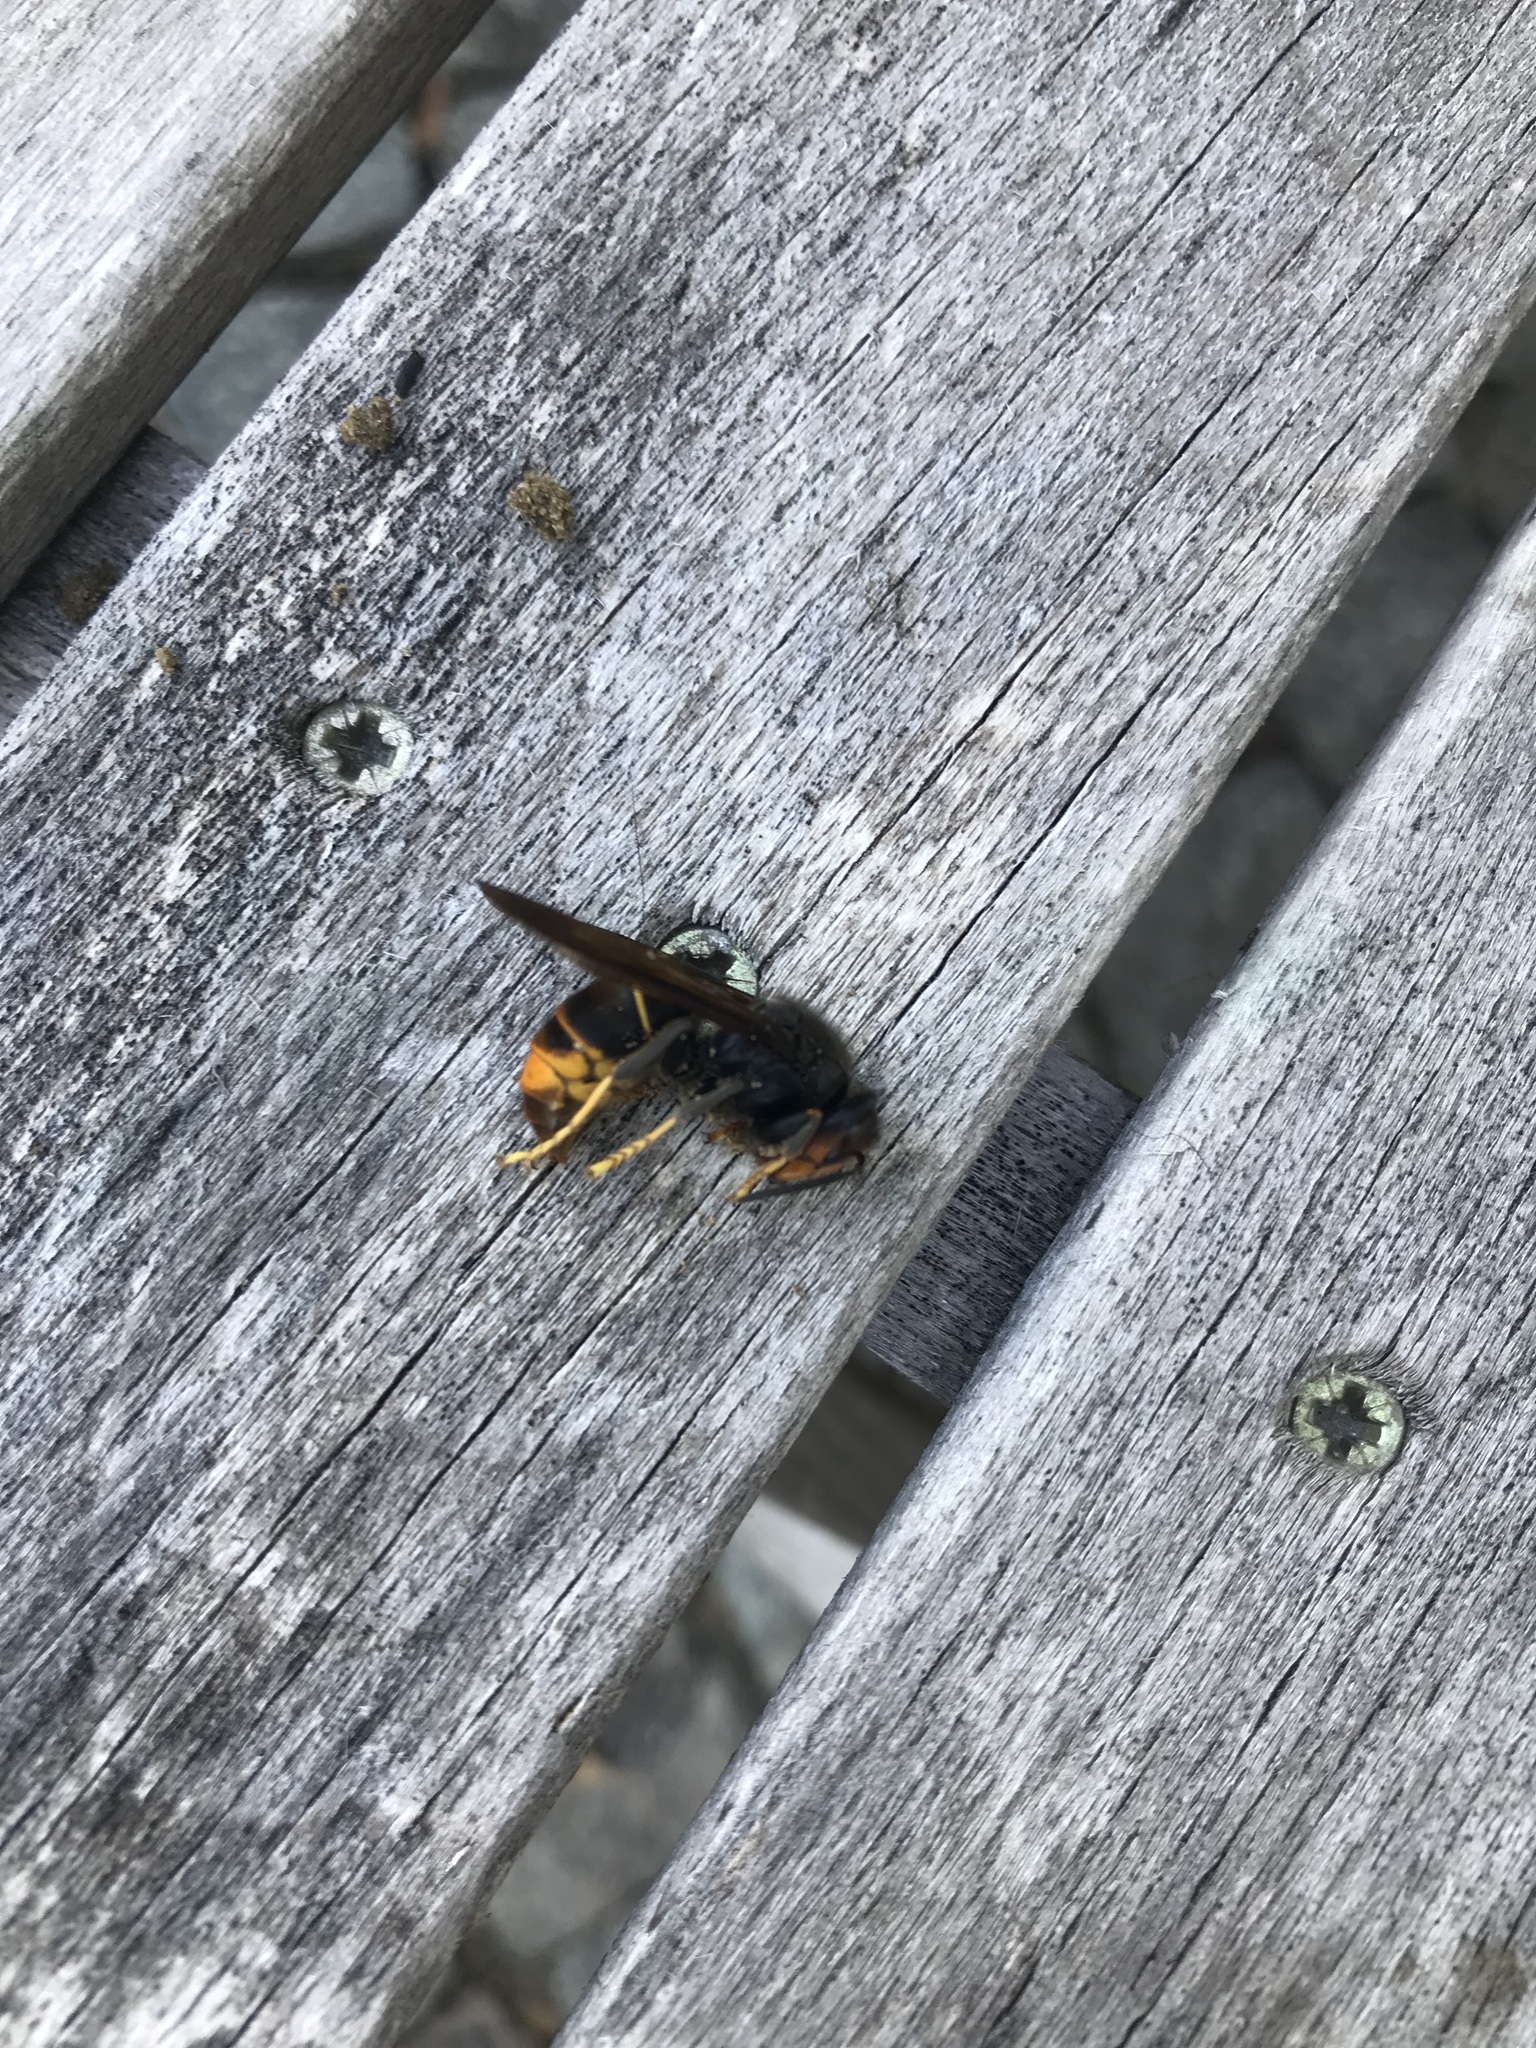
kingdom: Animalia
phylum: Arthropoda
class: Insecta
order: Hymenoptera
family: Vespidae
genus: Vespa
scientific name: Vespa velutina
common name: Asian hornet
